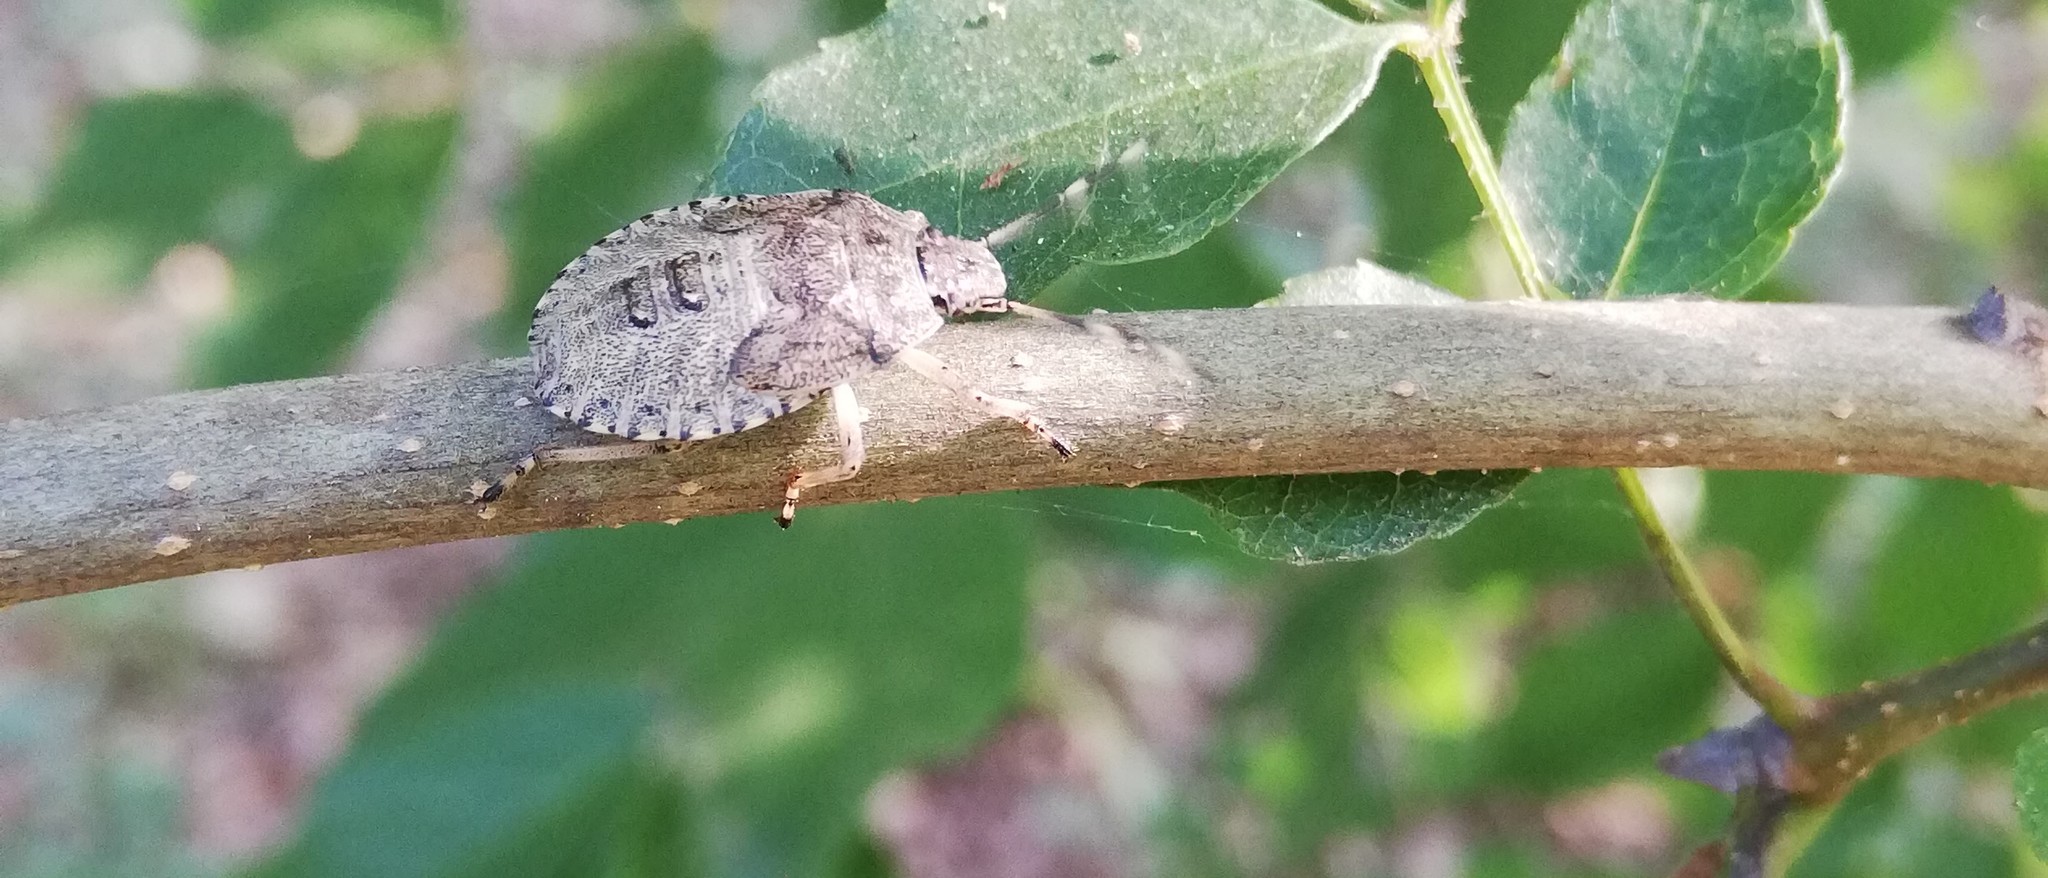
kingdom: Animalia
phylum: Arthropoda
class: Insecta
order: Hemiptera
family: Pentatomidae
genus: Rhaphigaster
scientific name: Rhaphigaster nebulosa
